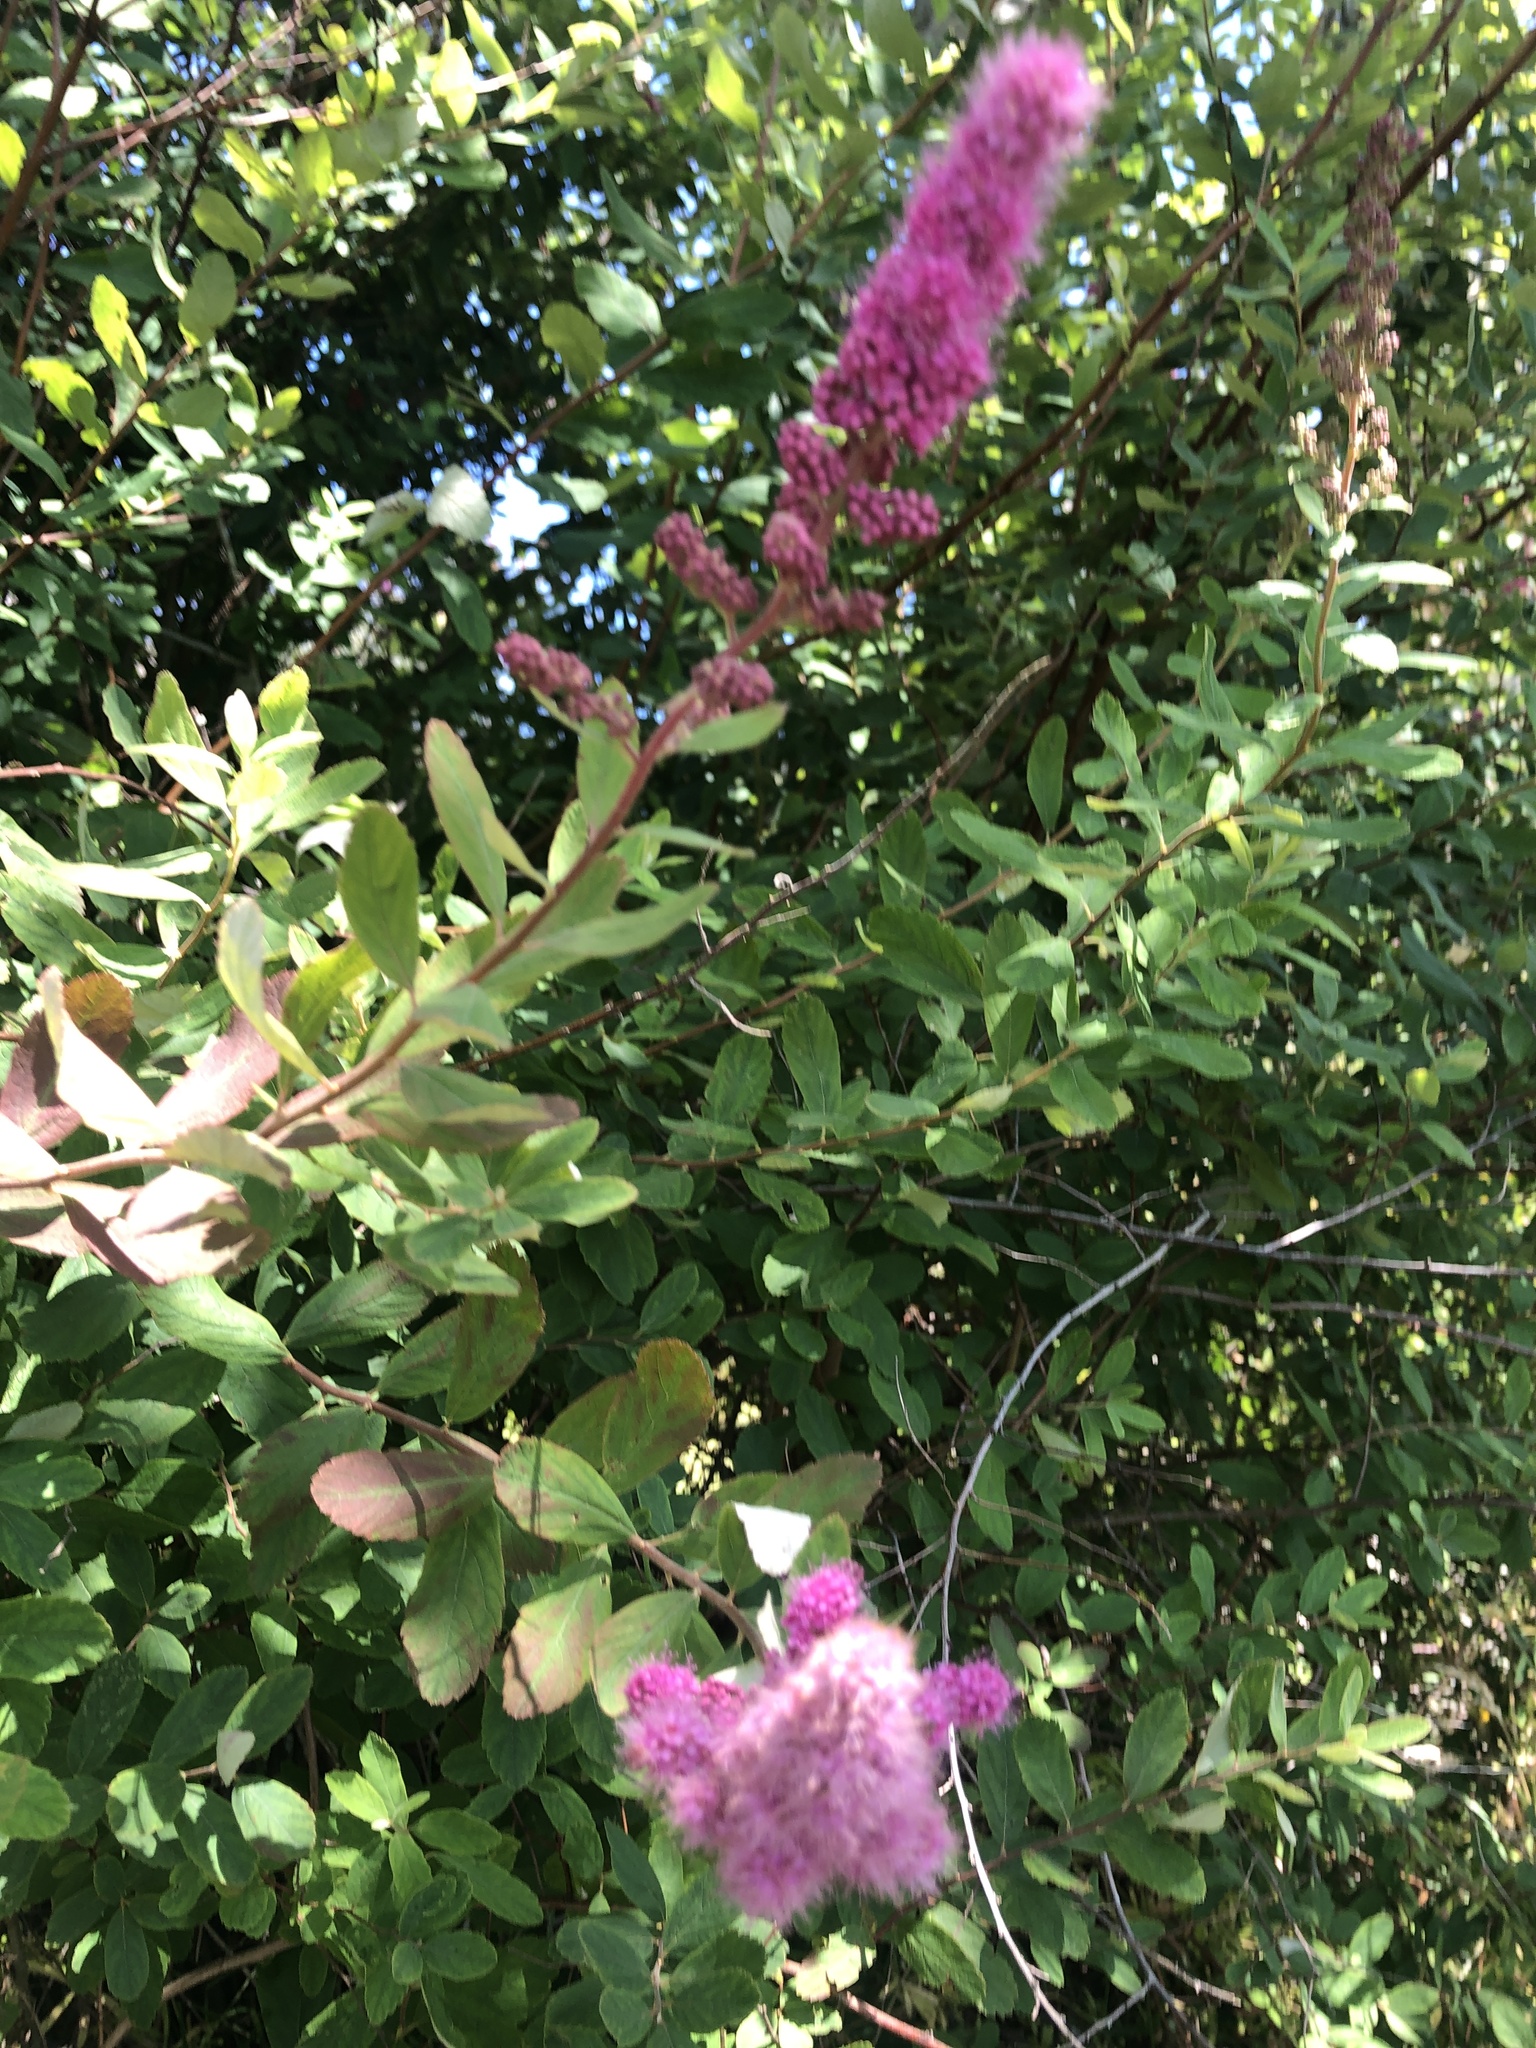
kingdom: Plantae
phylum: Tracheophyta
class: Magnoliopsida
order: Rosales
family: Rosaceae
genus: Spiraea
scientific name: Spiraea douglasii
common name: Steeplebush
